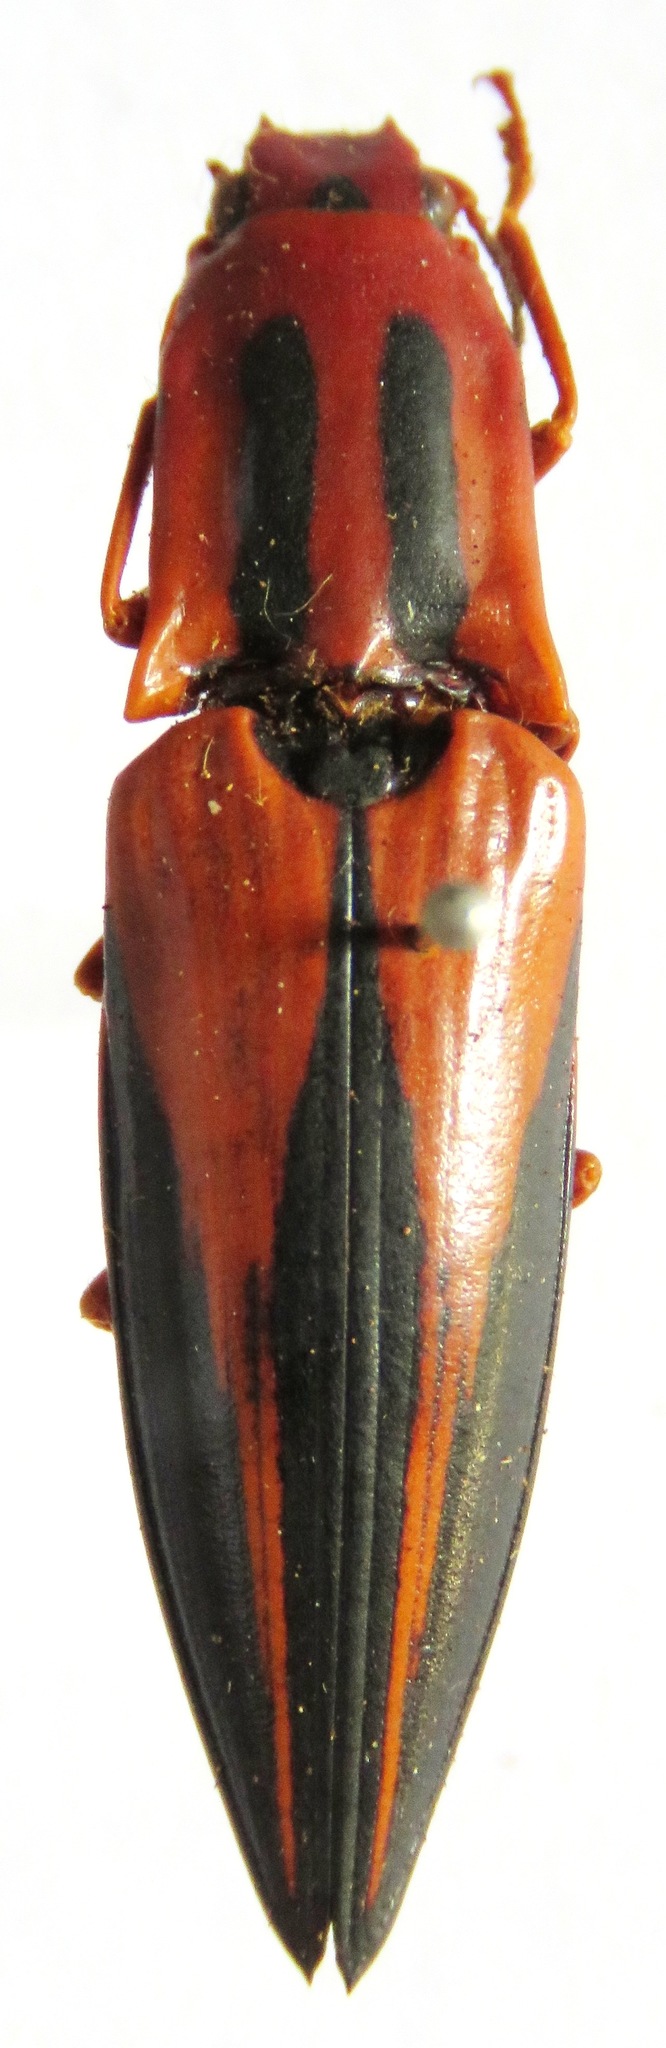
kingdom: Animalia
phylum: Arthropoda
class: Insecta
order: Coleoptera
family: Elateridae
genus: Semiotus
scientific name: Semiotus
